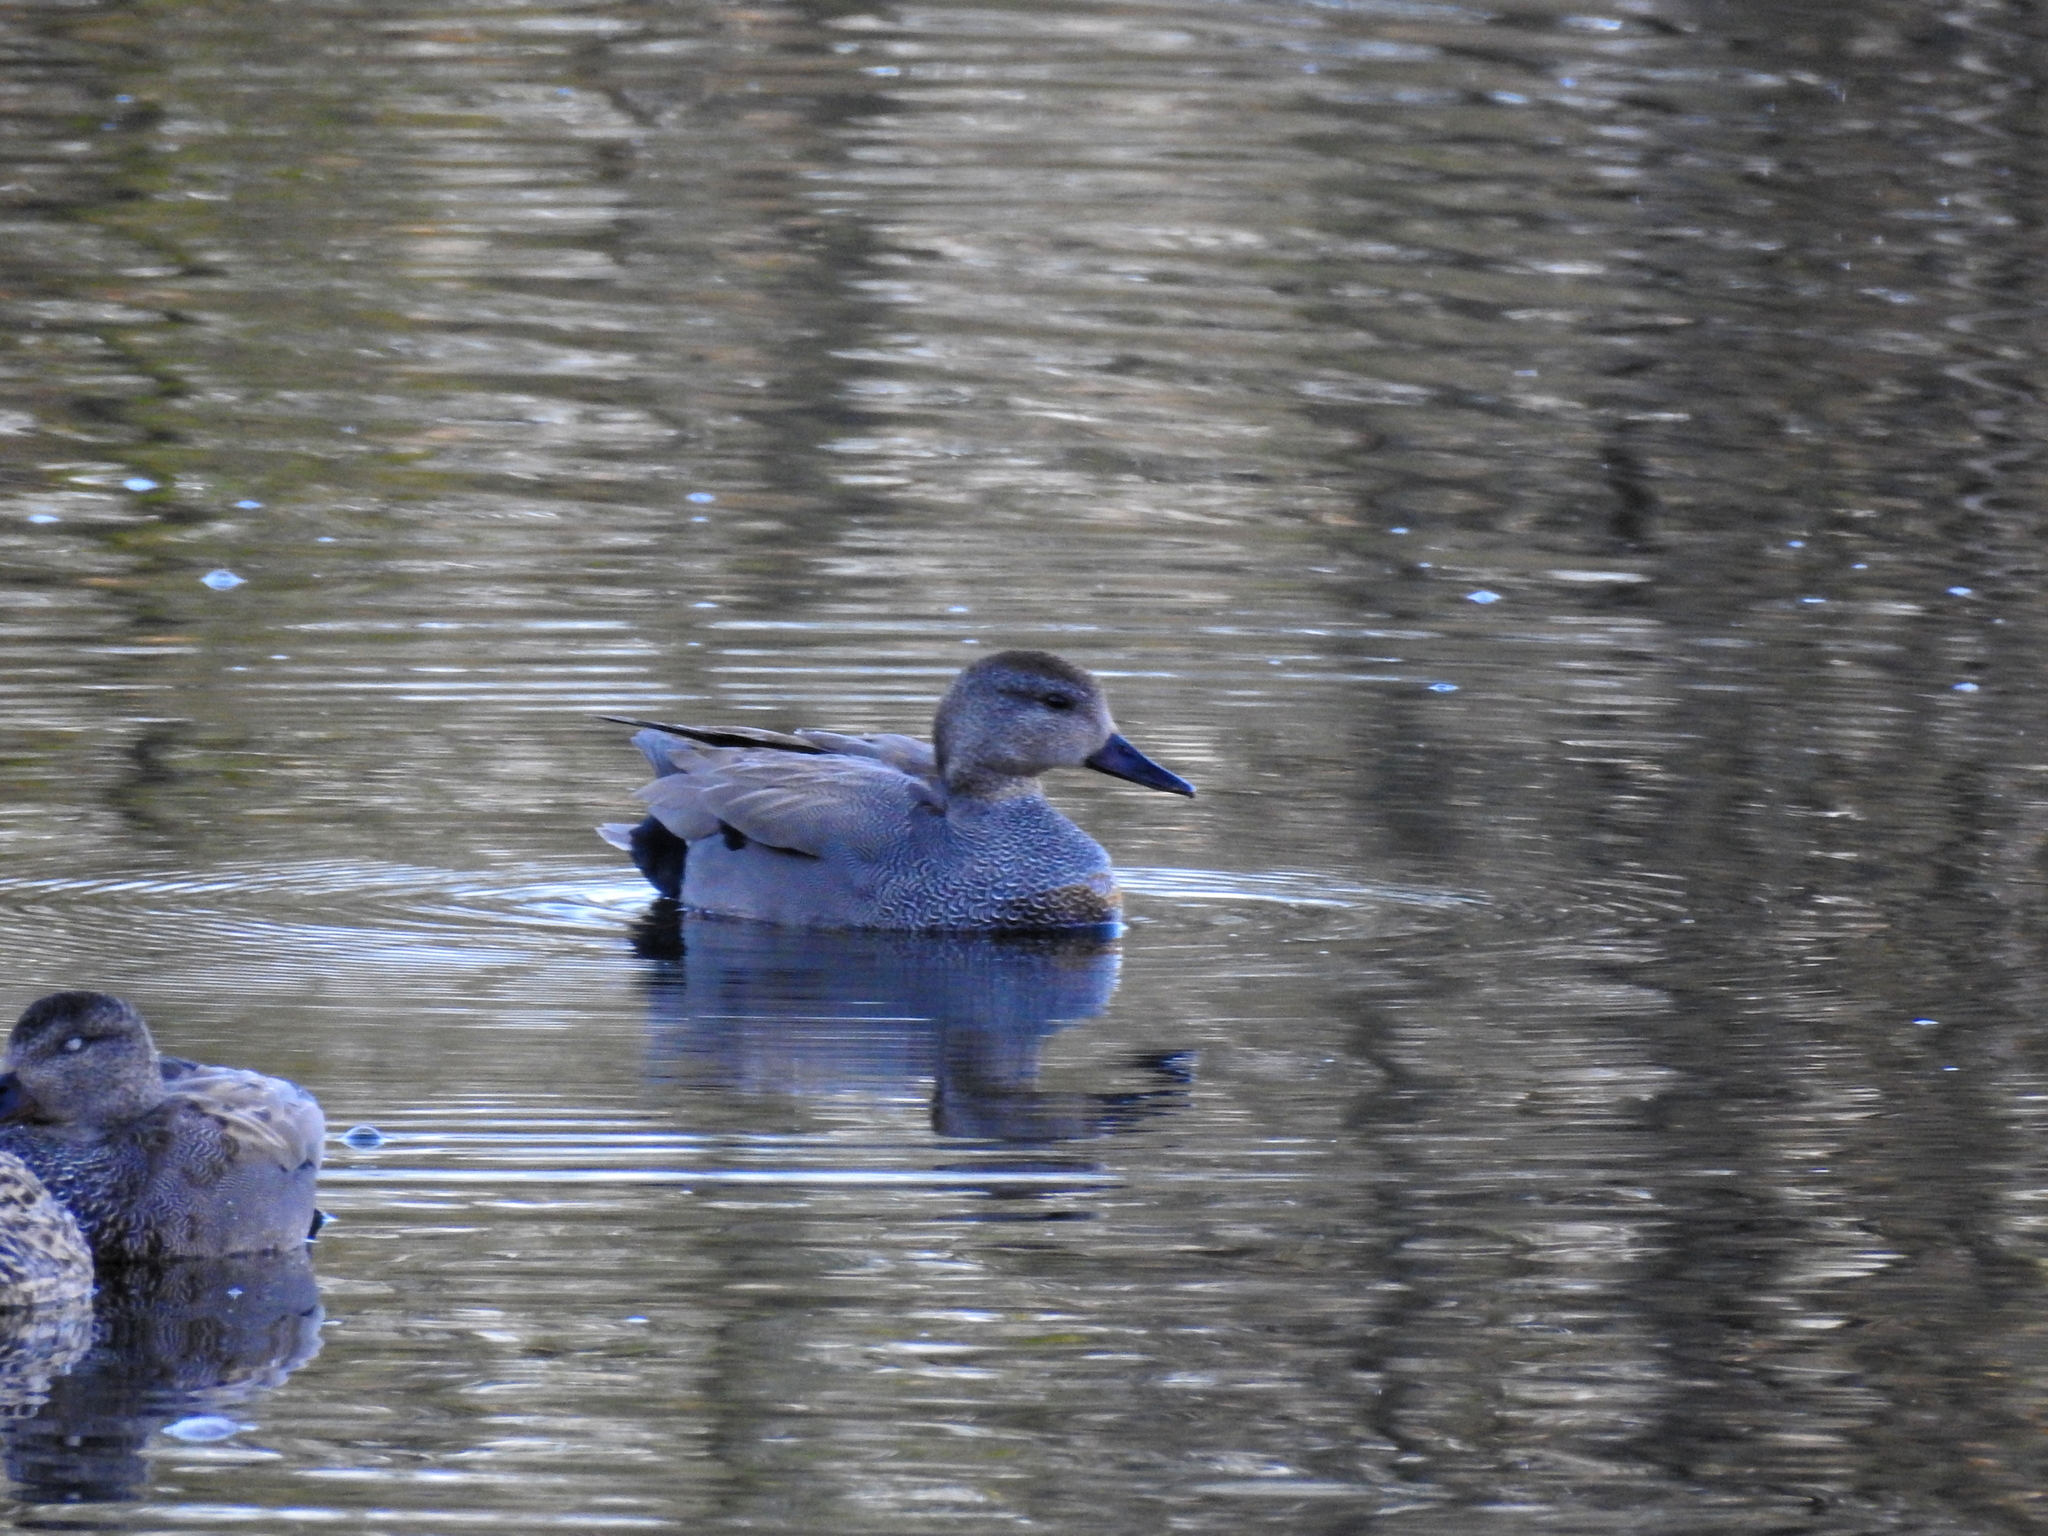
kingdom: Animalia
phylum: Chordata
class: Aves
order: Anseriformes
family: Anatidae
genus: Mareca
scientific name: Mareca strepera
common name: Gadwall
